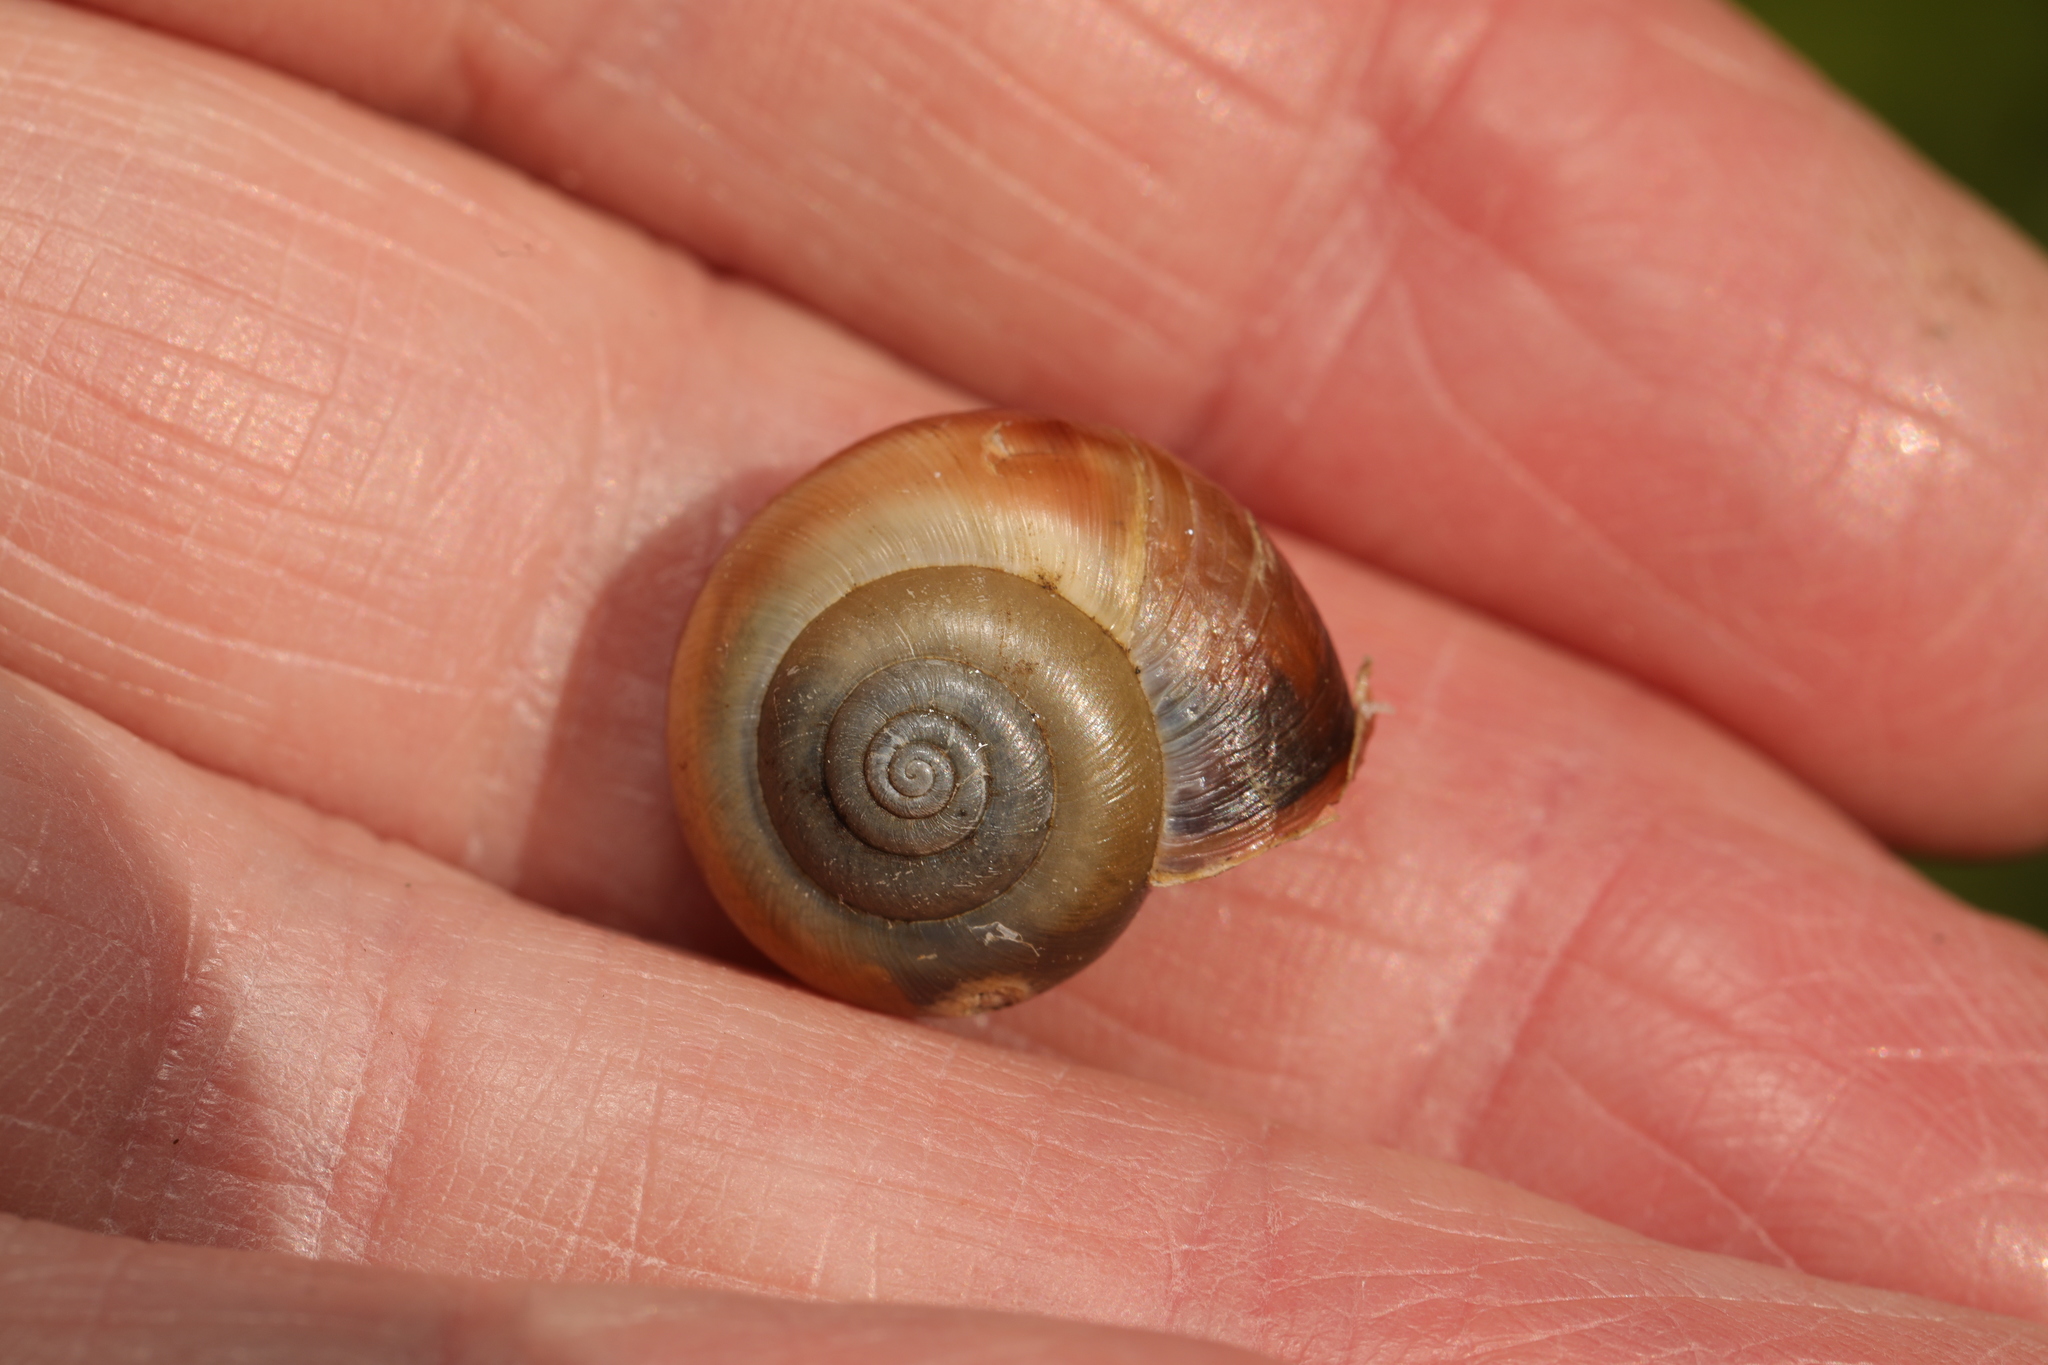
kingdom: Animalia
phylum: Mollusca
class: Gastropoda
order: Stylommatophora
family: Hygromiidae
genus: Monacha
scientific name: Monacha cantiana
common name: Kentish snail
